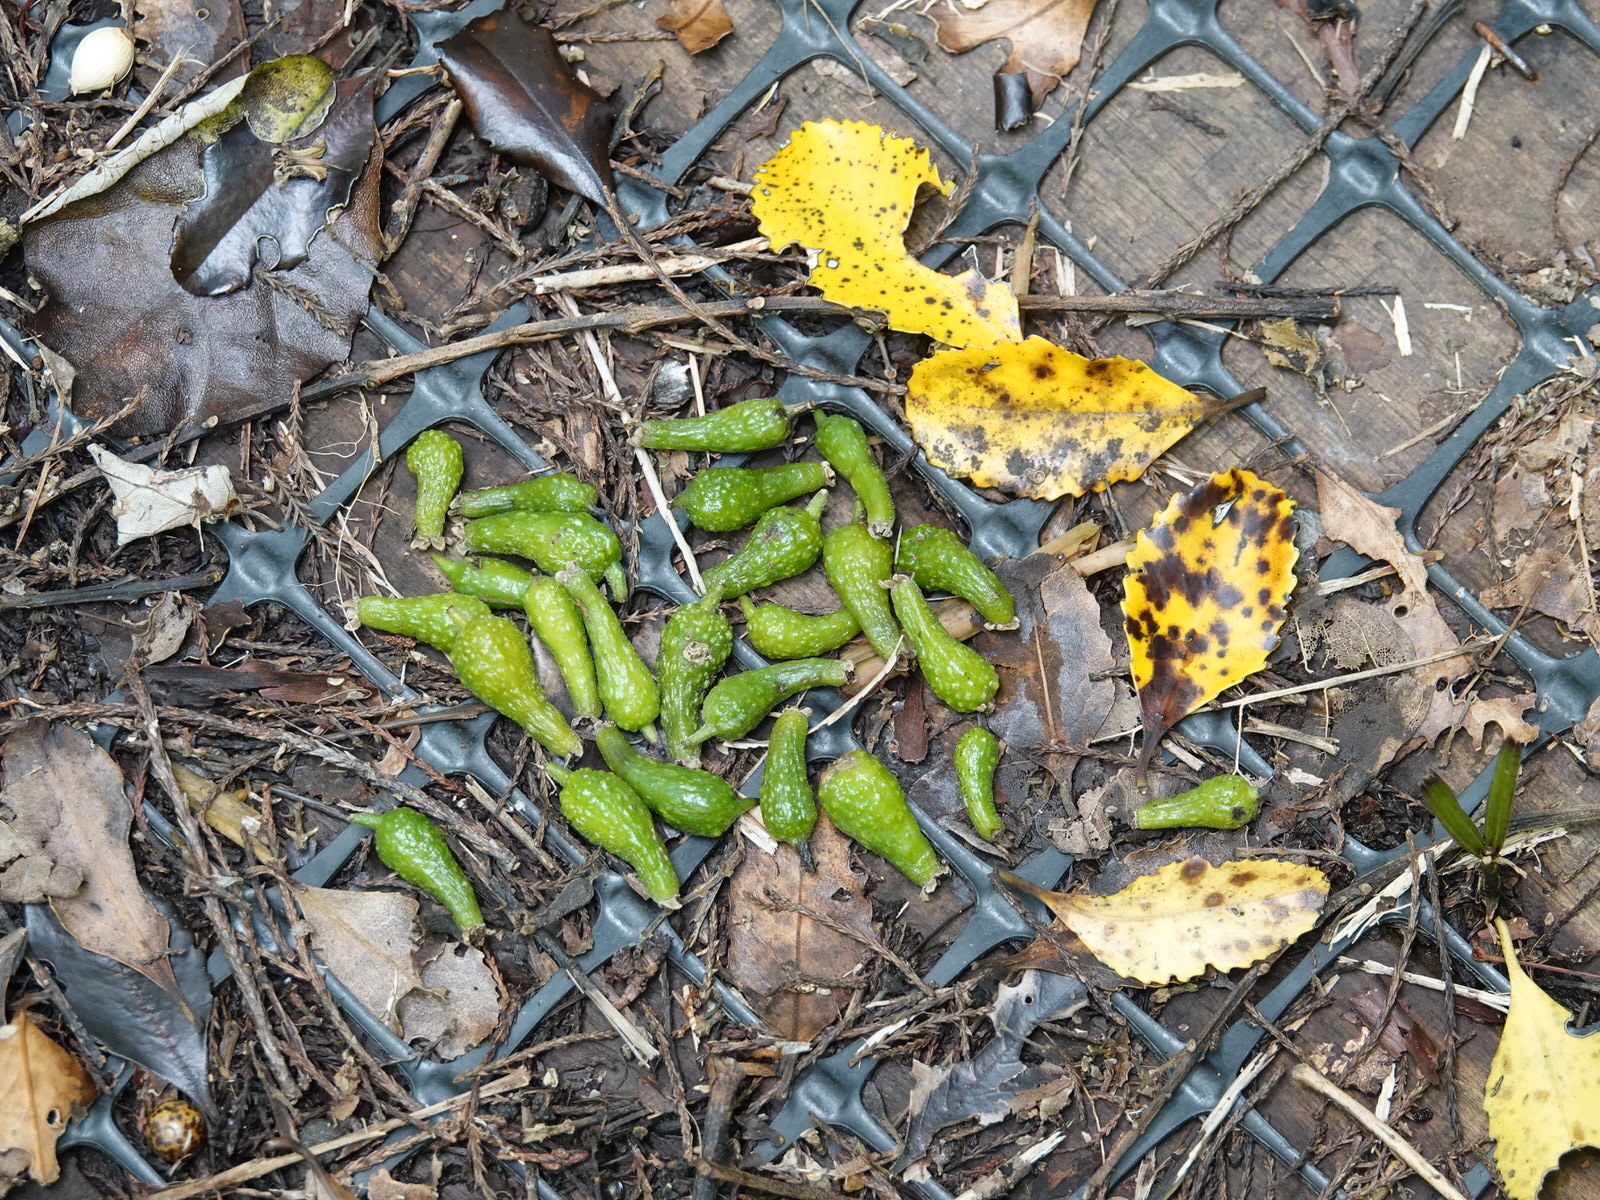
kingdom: Plantae
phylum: Tracheophyta
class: Magnoliopsida
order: Laurales
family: Atherospermataceae
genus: Laurelia
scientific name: Laurelia novae-zelandiae
